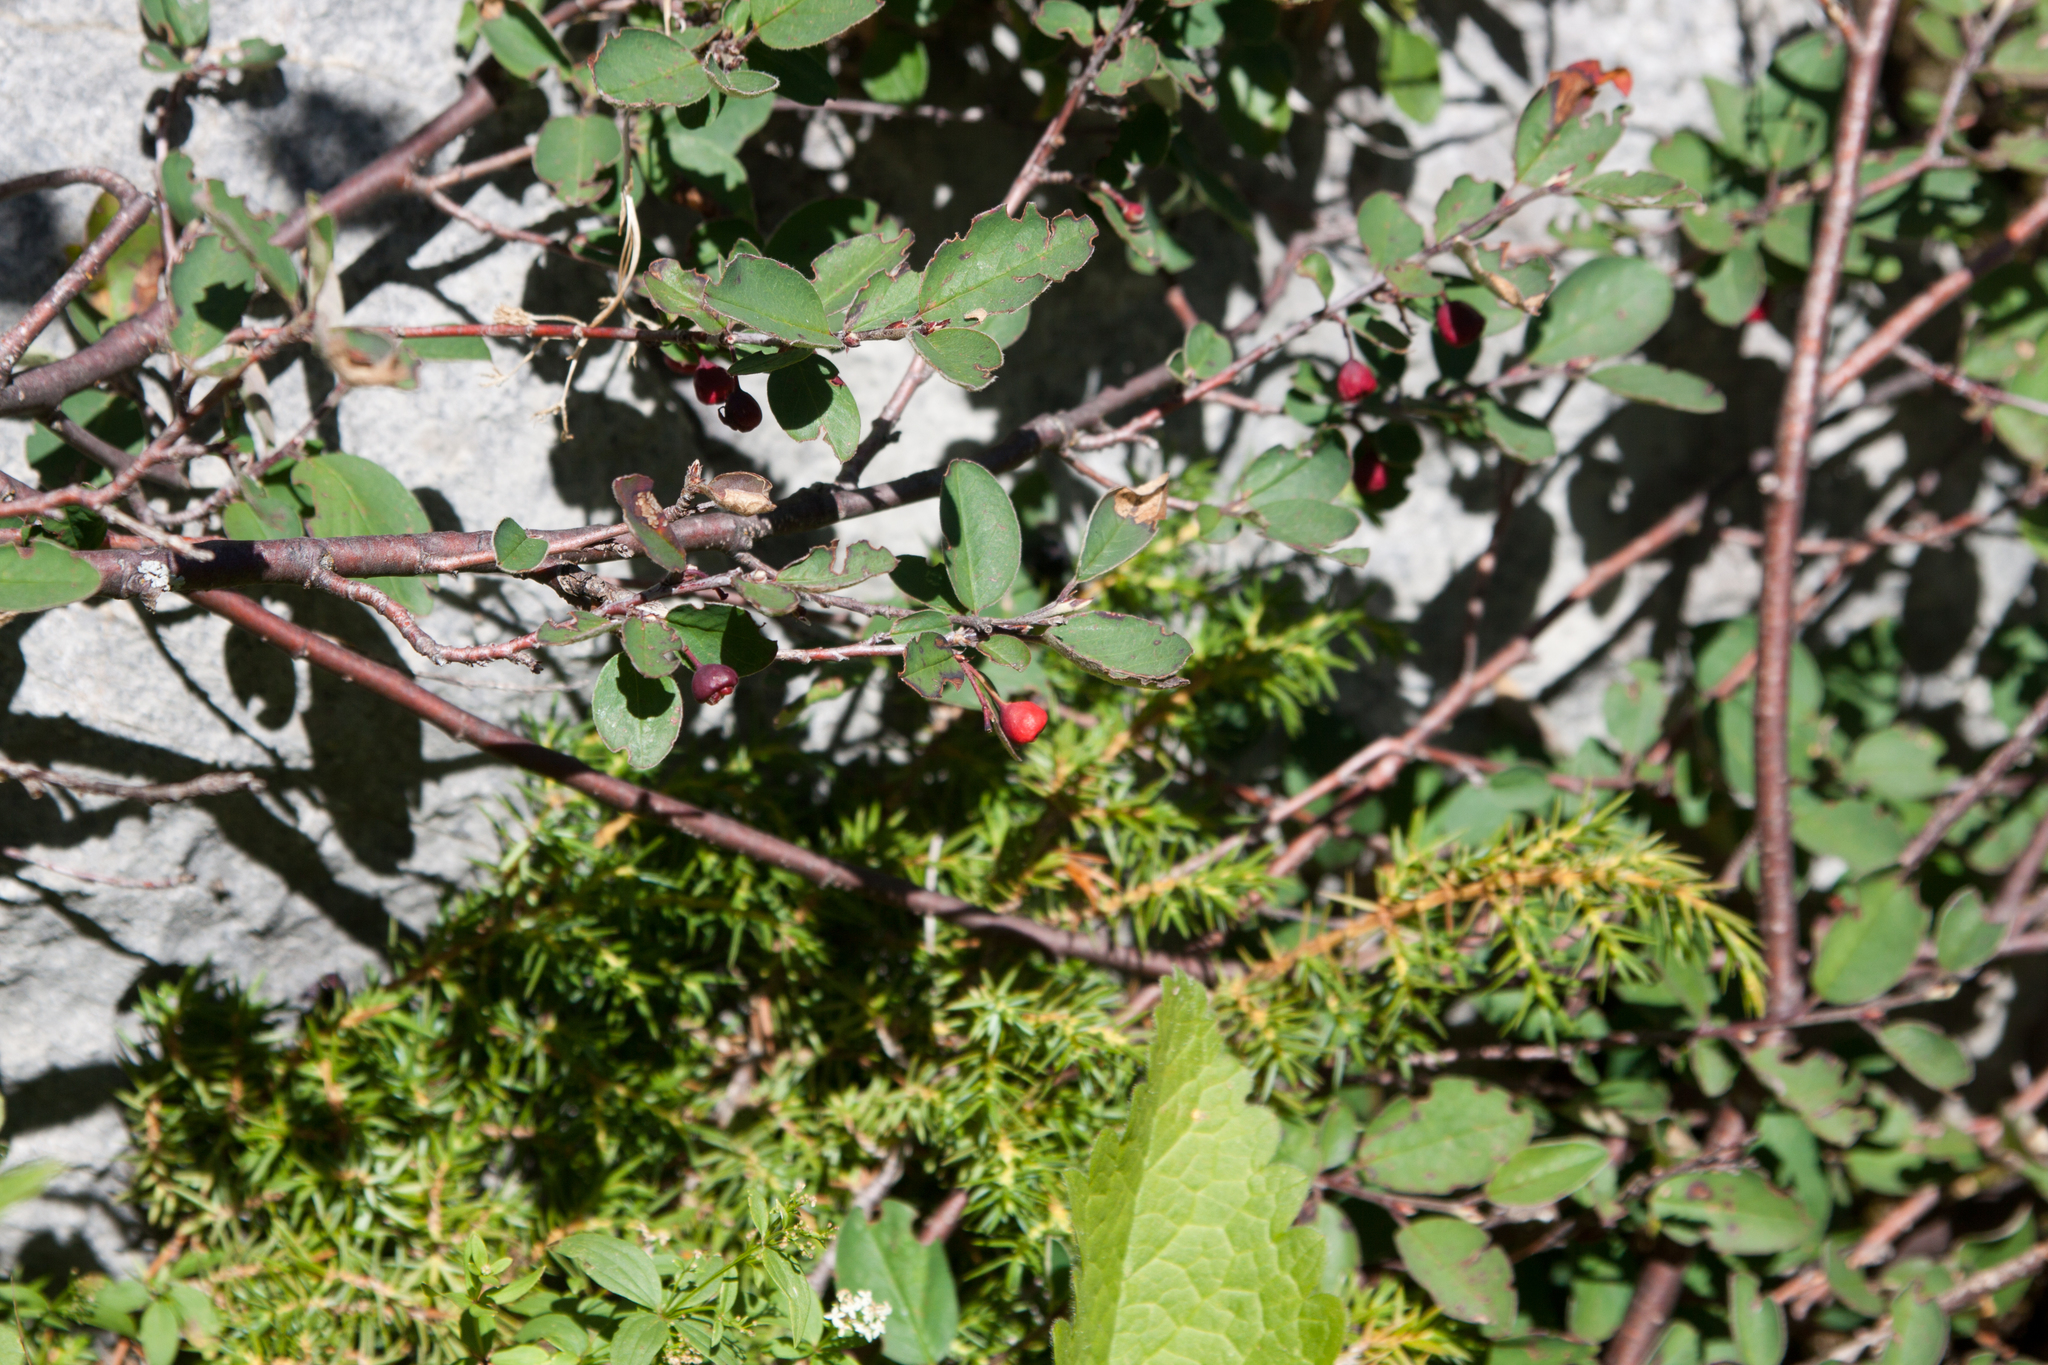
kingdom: Plantae
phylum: Tracheophyta
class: Magnoliopsida
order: Rosales
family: Rosaceae
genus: Cotoneaster
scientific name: Cotoneaster integerrimus
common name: Wild cotoneaster
